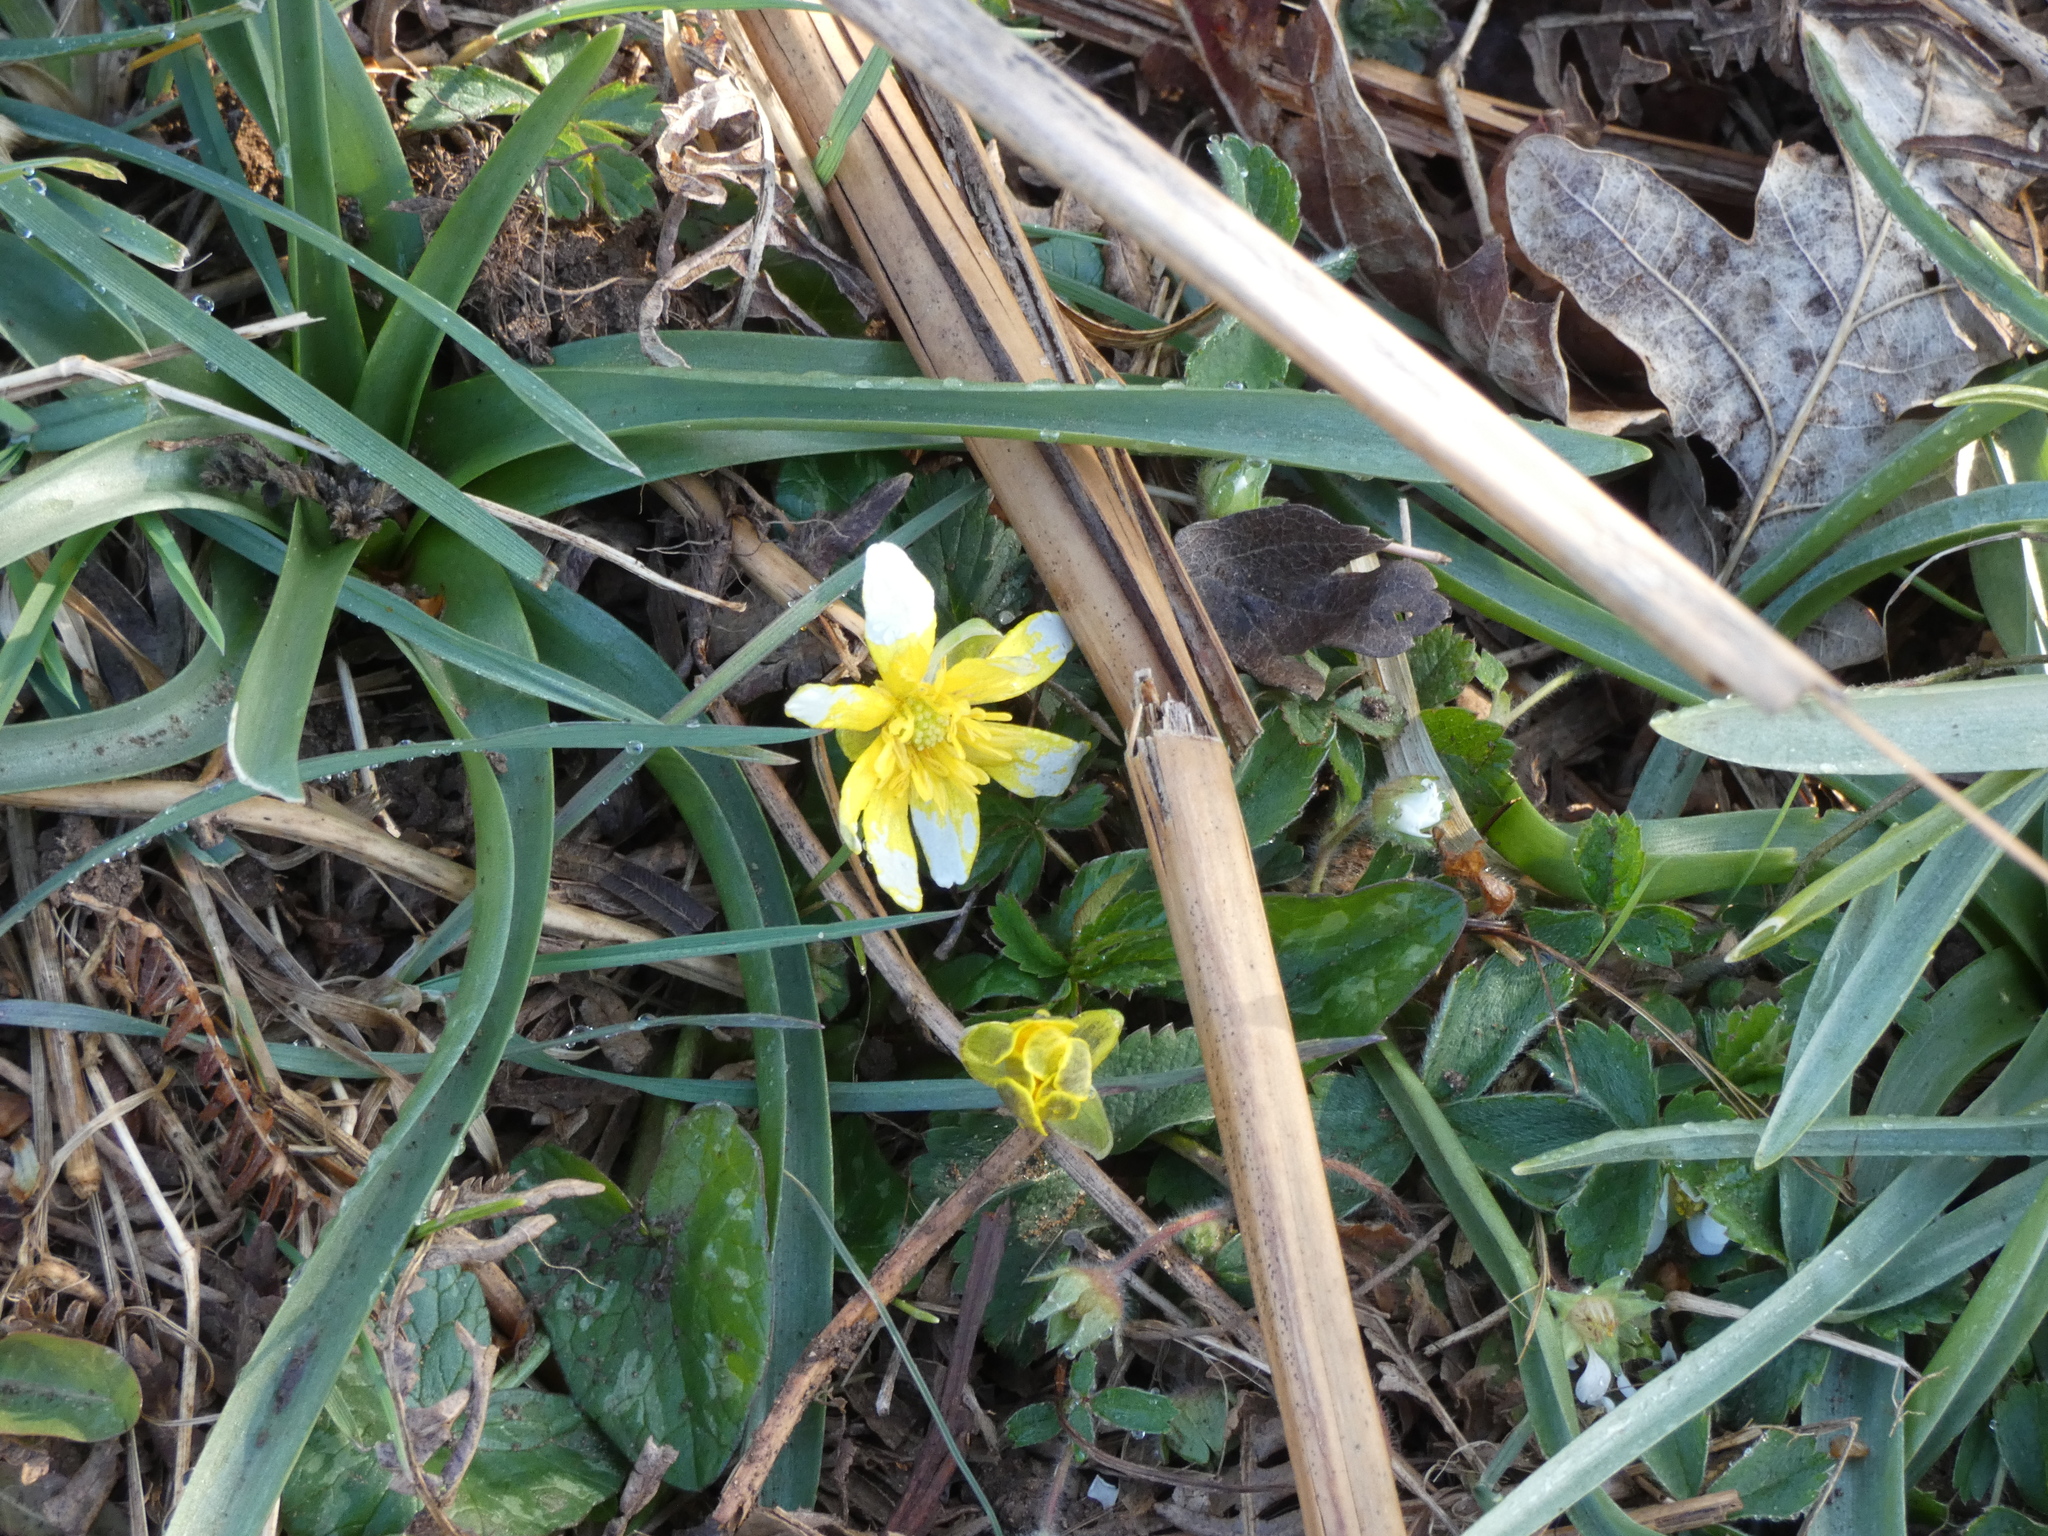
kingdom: Plantae
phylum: Tracheophyta
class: Magnoliopsida
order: Ranunculales
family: Ranunculaceae
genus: Ficaria
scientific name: Ficaria verna
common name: Lesser celandine
